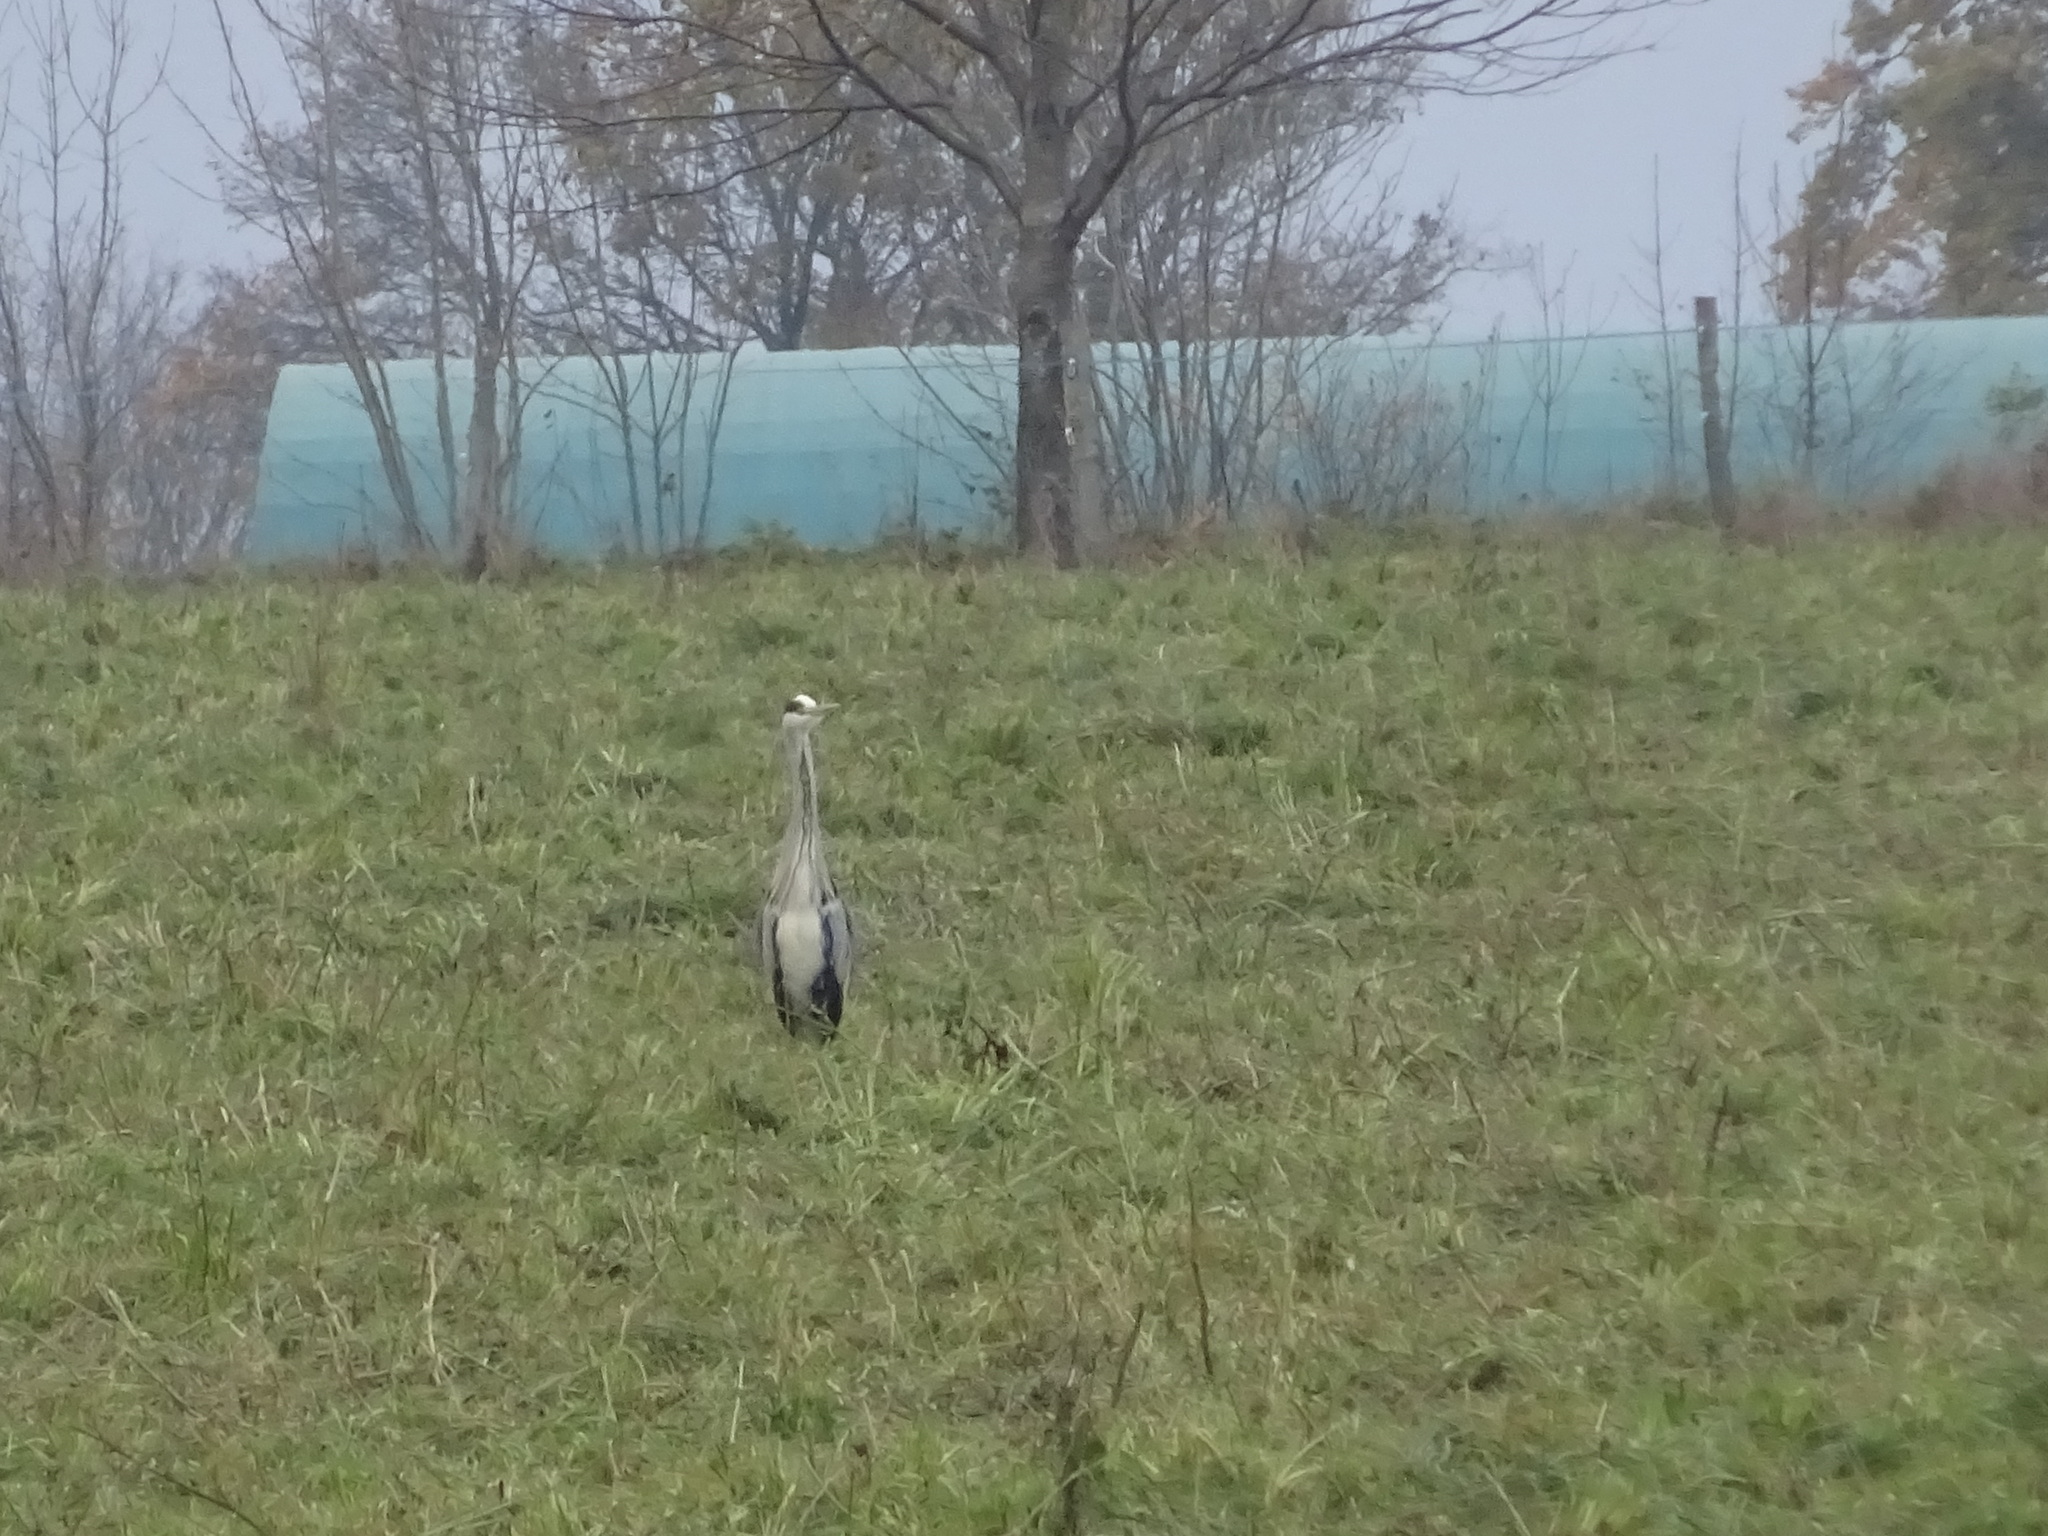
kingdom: Animalia
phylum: Chordata
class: Aves
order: Pelecaniformes
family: Ardeidae
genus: Ardea
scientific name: Ardea cinerea
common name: Grey heron
